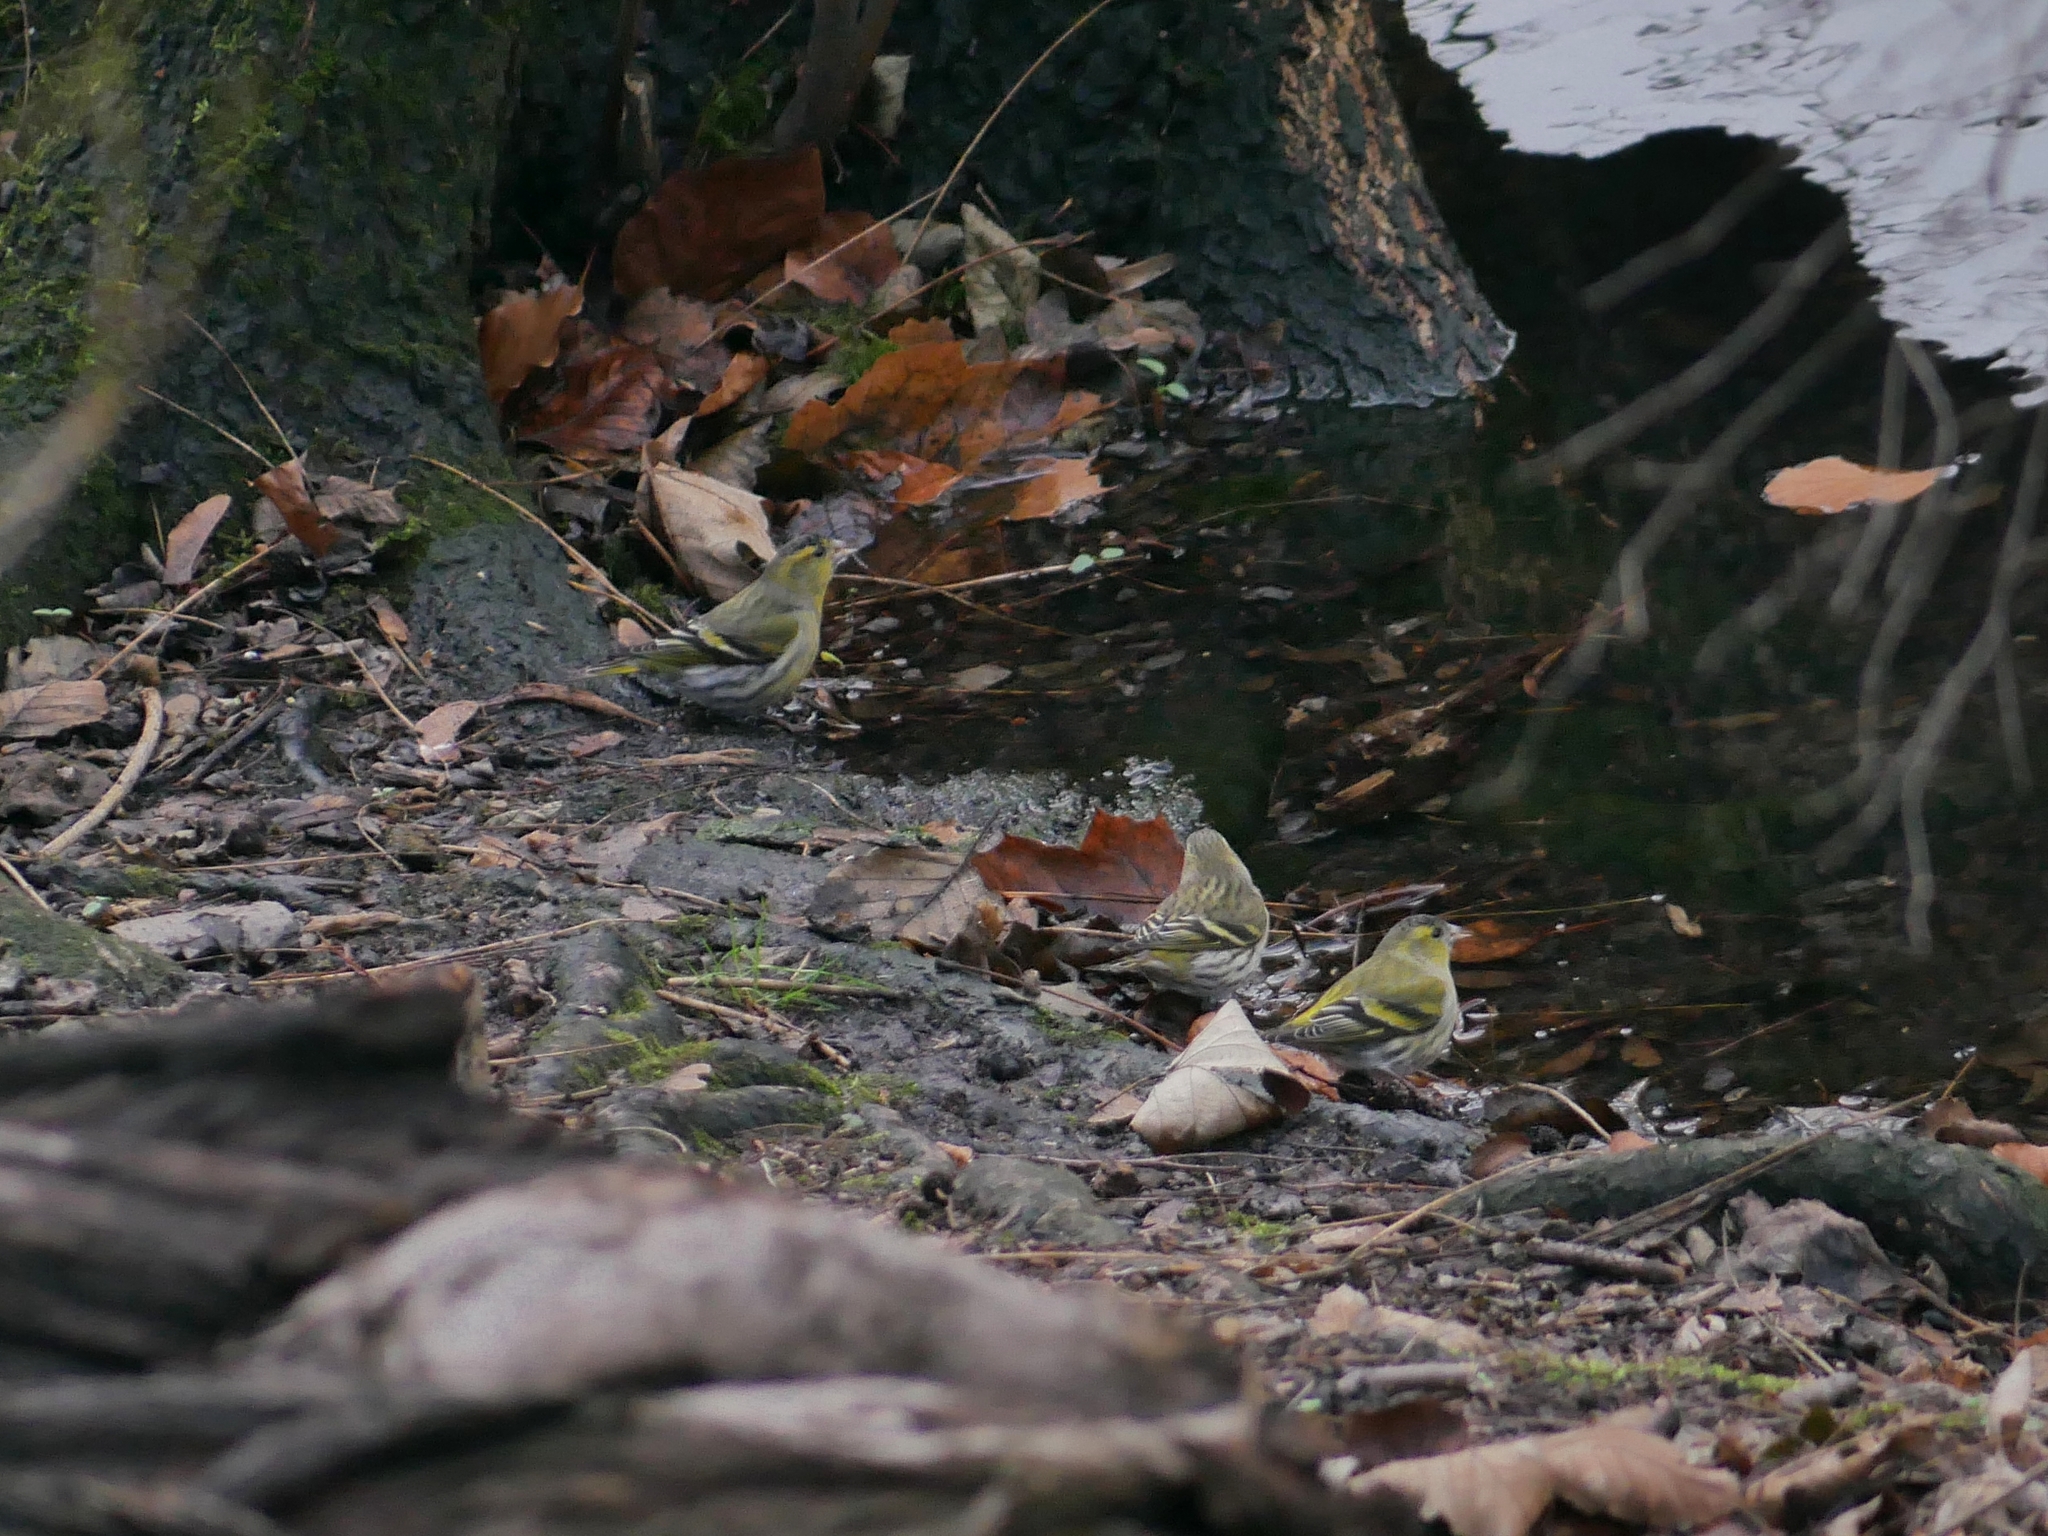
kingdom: Animalia
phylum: Chordata
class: Aves
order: Passeriformes
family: Fringillidae
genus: Spinus
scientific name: Spinus spinus
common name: Eurasian siskin
